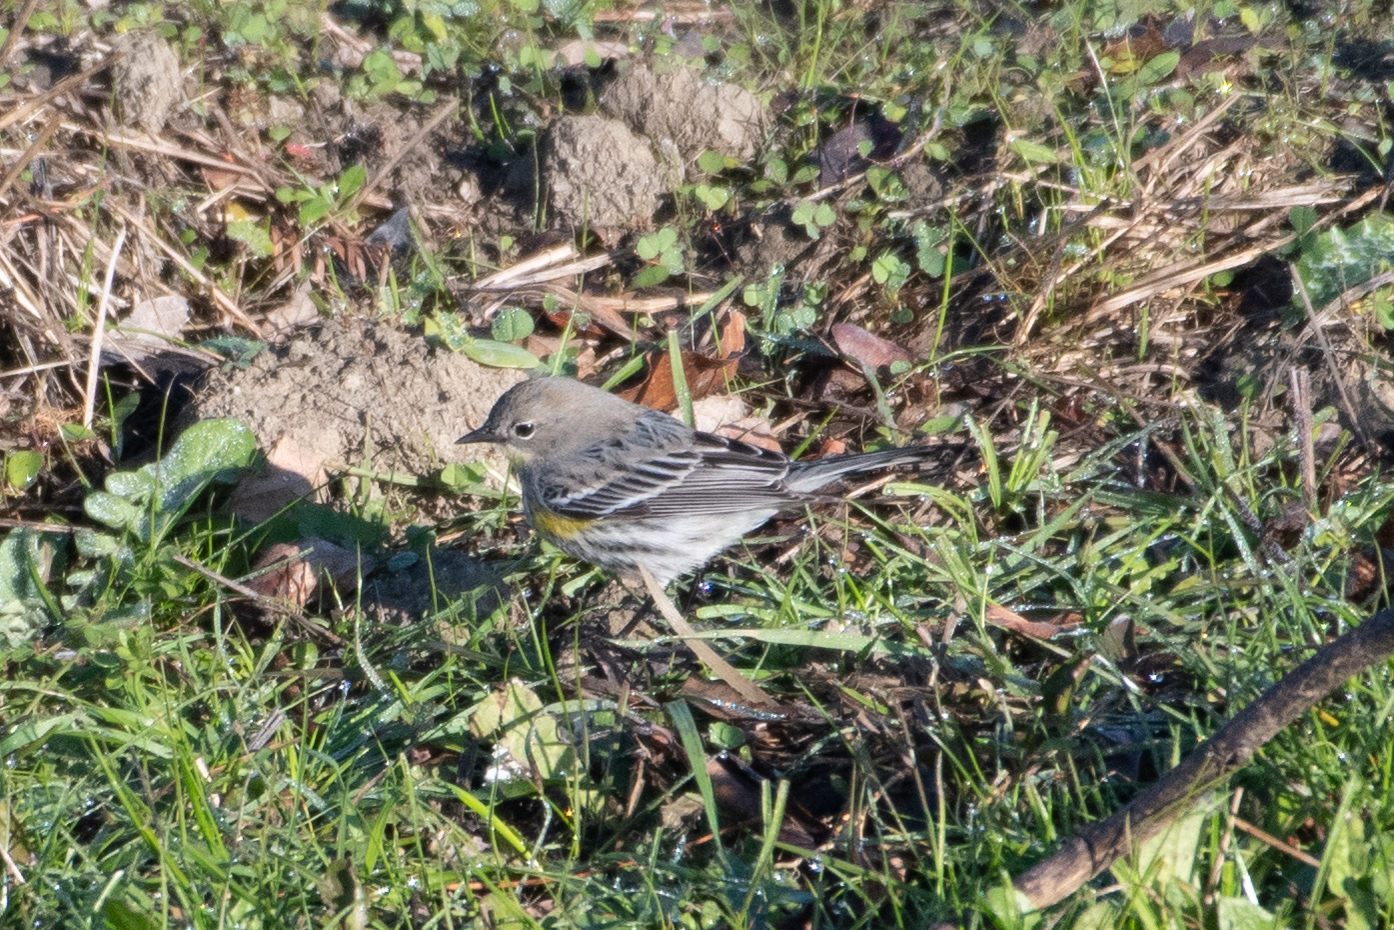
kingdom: Animalia
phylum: Chordata
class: Aves
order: Passeriformes
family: Parulidae
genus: Setophaga
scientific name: Setophaga coronata
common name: Myrtle warbler
